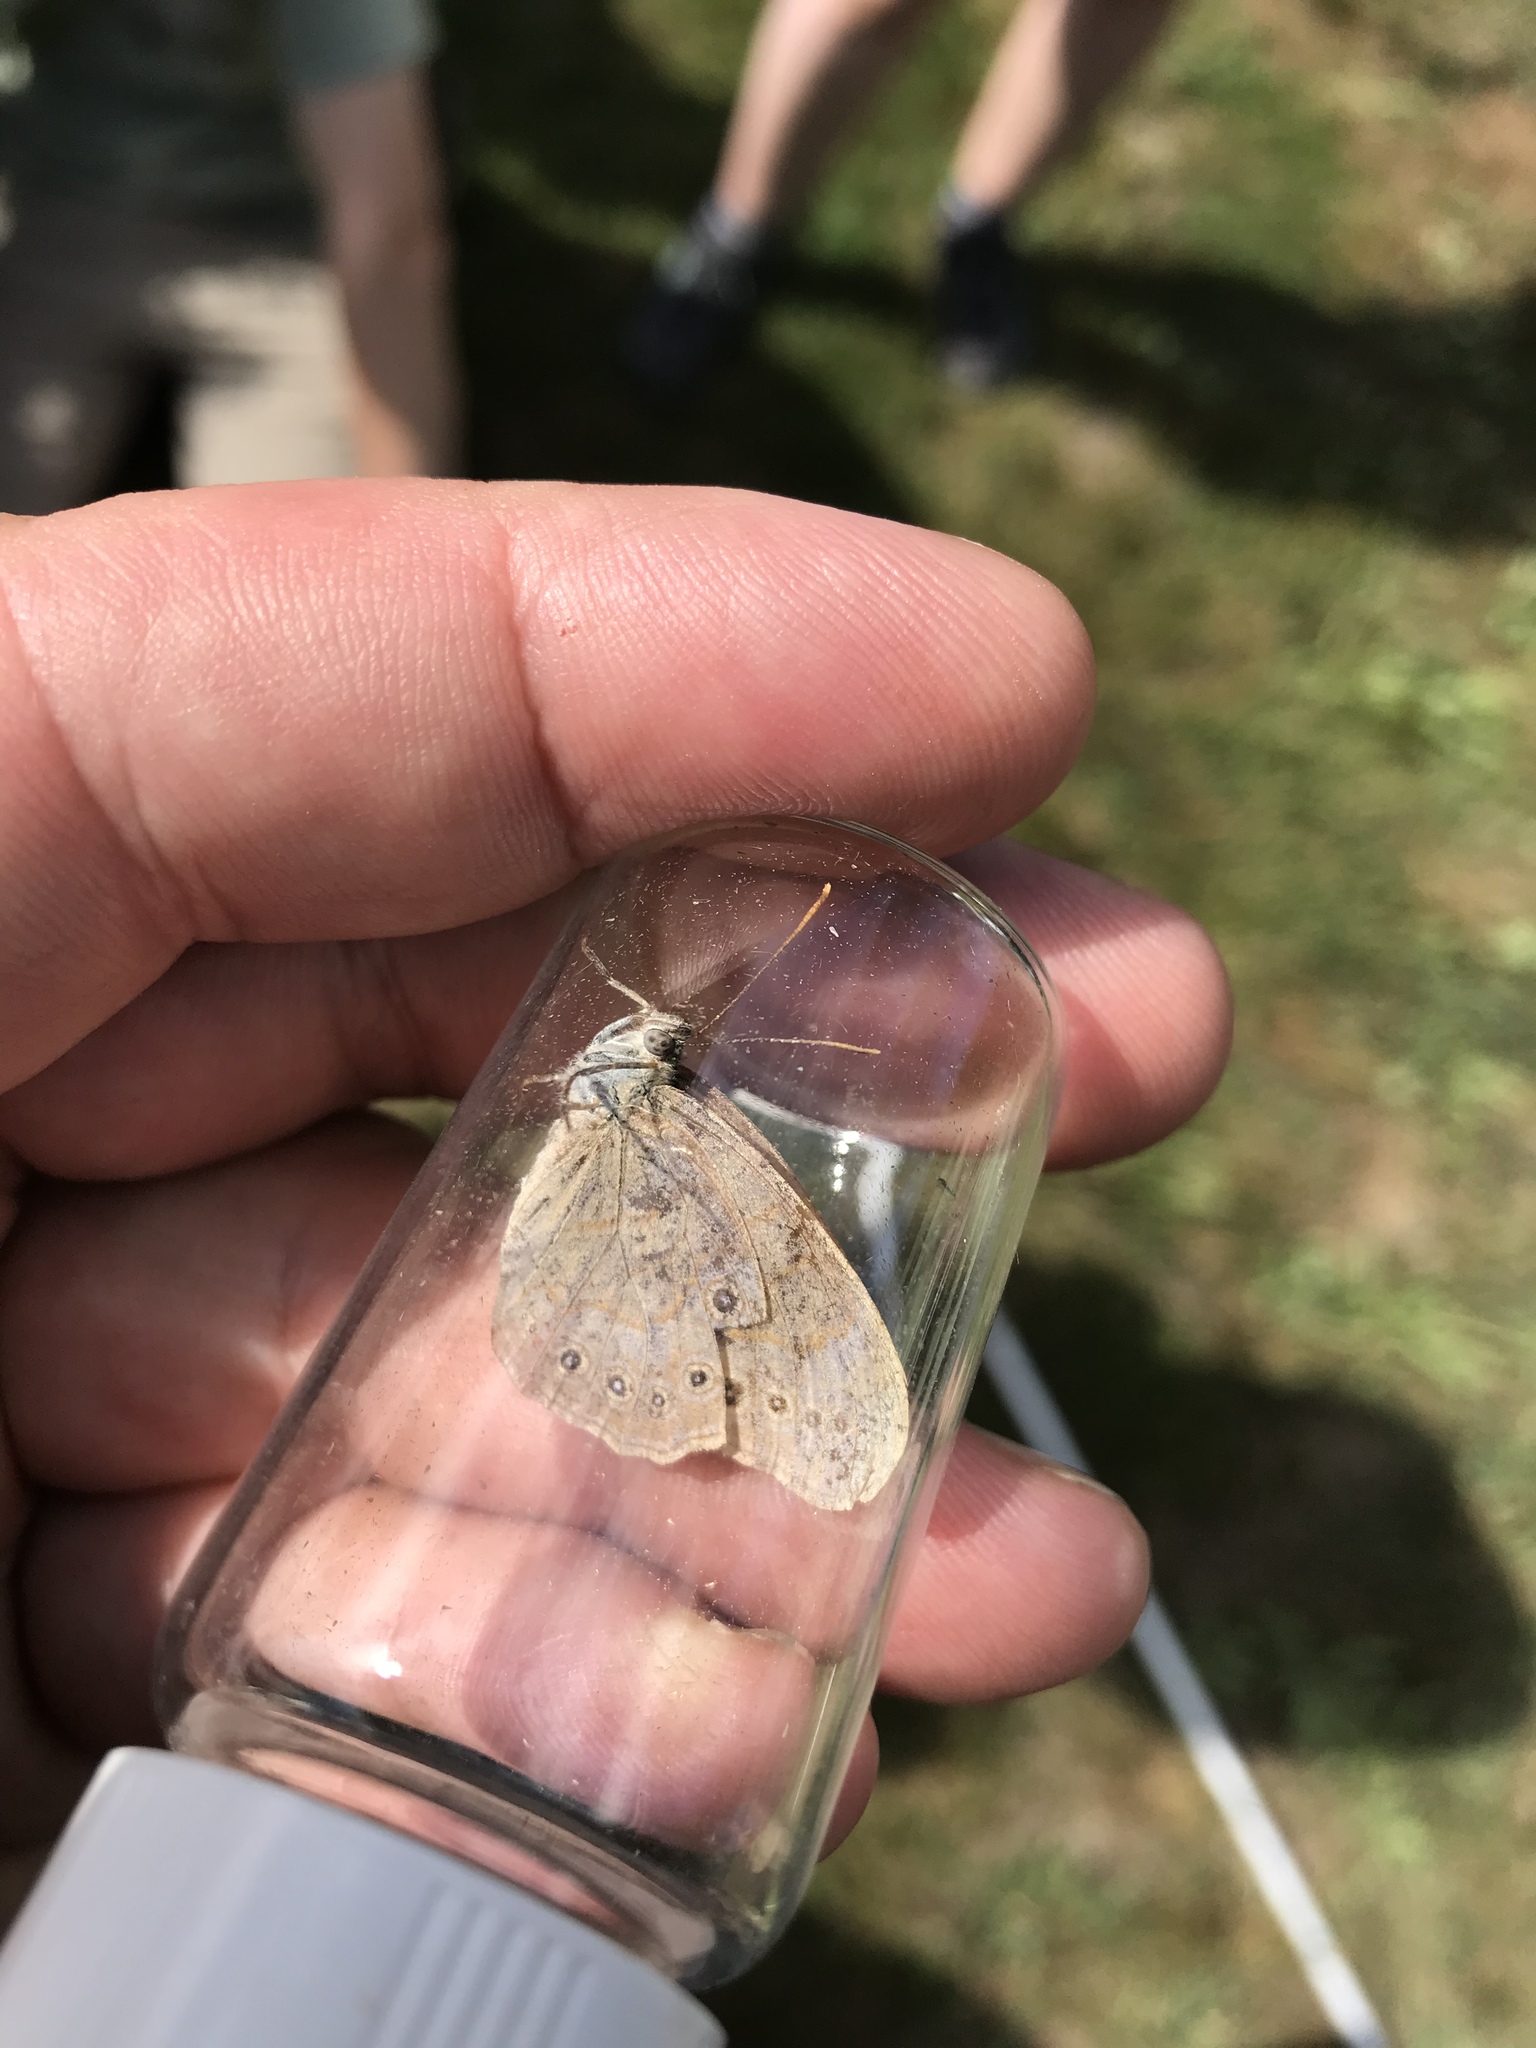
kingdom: Animalia
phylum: Arthropoda
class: Insecta
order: Lepidoptera
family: Nymphalidae
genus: Lethe
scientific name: Lethe eurydice
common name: Eyed brown
